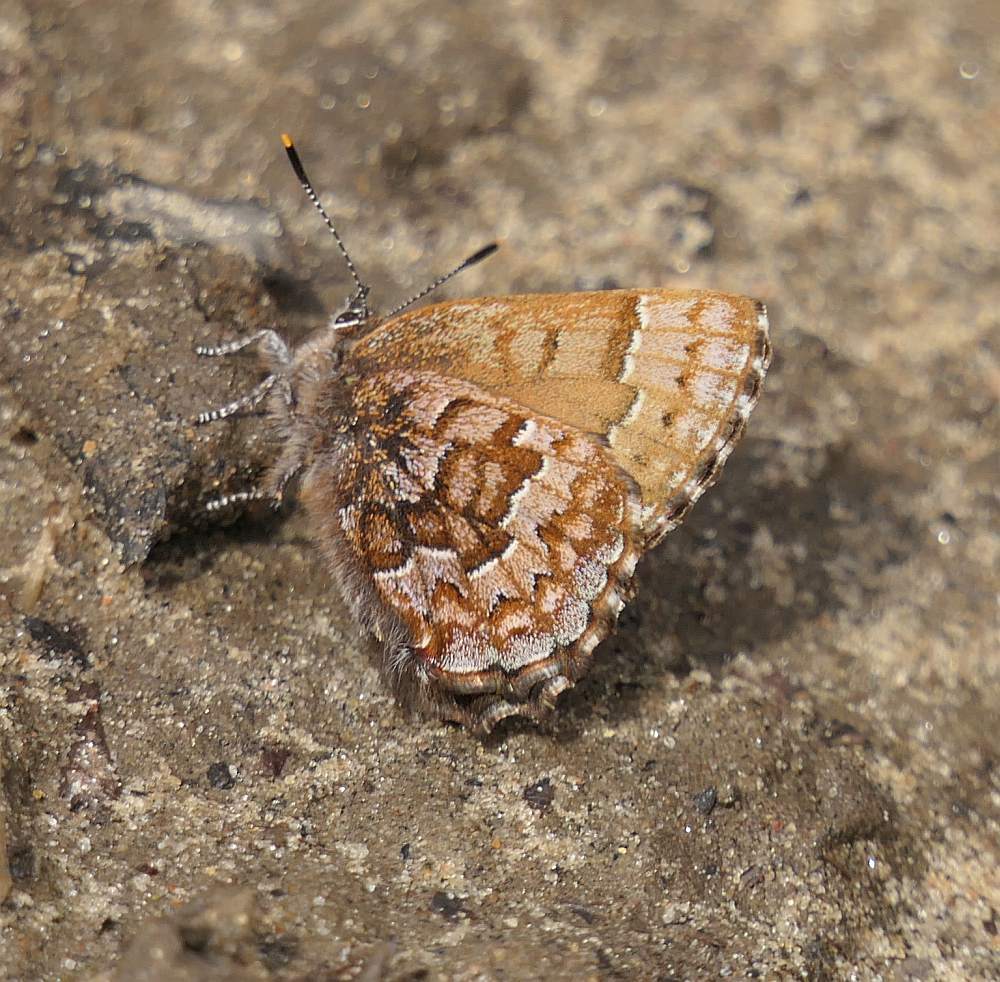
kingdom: Animalia
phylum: Arthropoda
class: Insecta
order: Lepidoptera
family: Lycaenidae
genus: Incisalia
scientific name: Incisalia niphon
